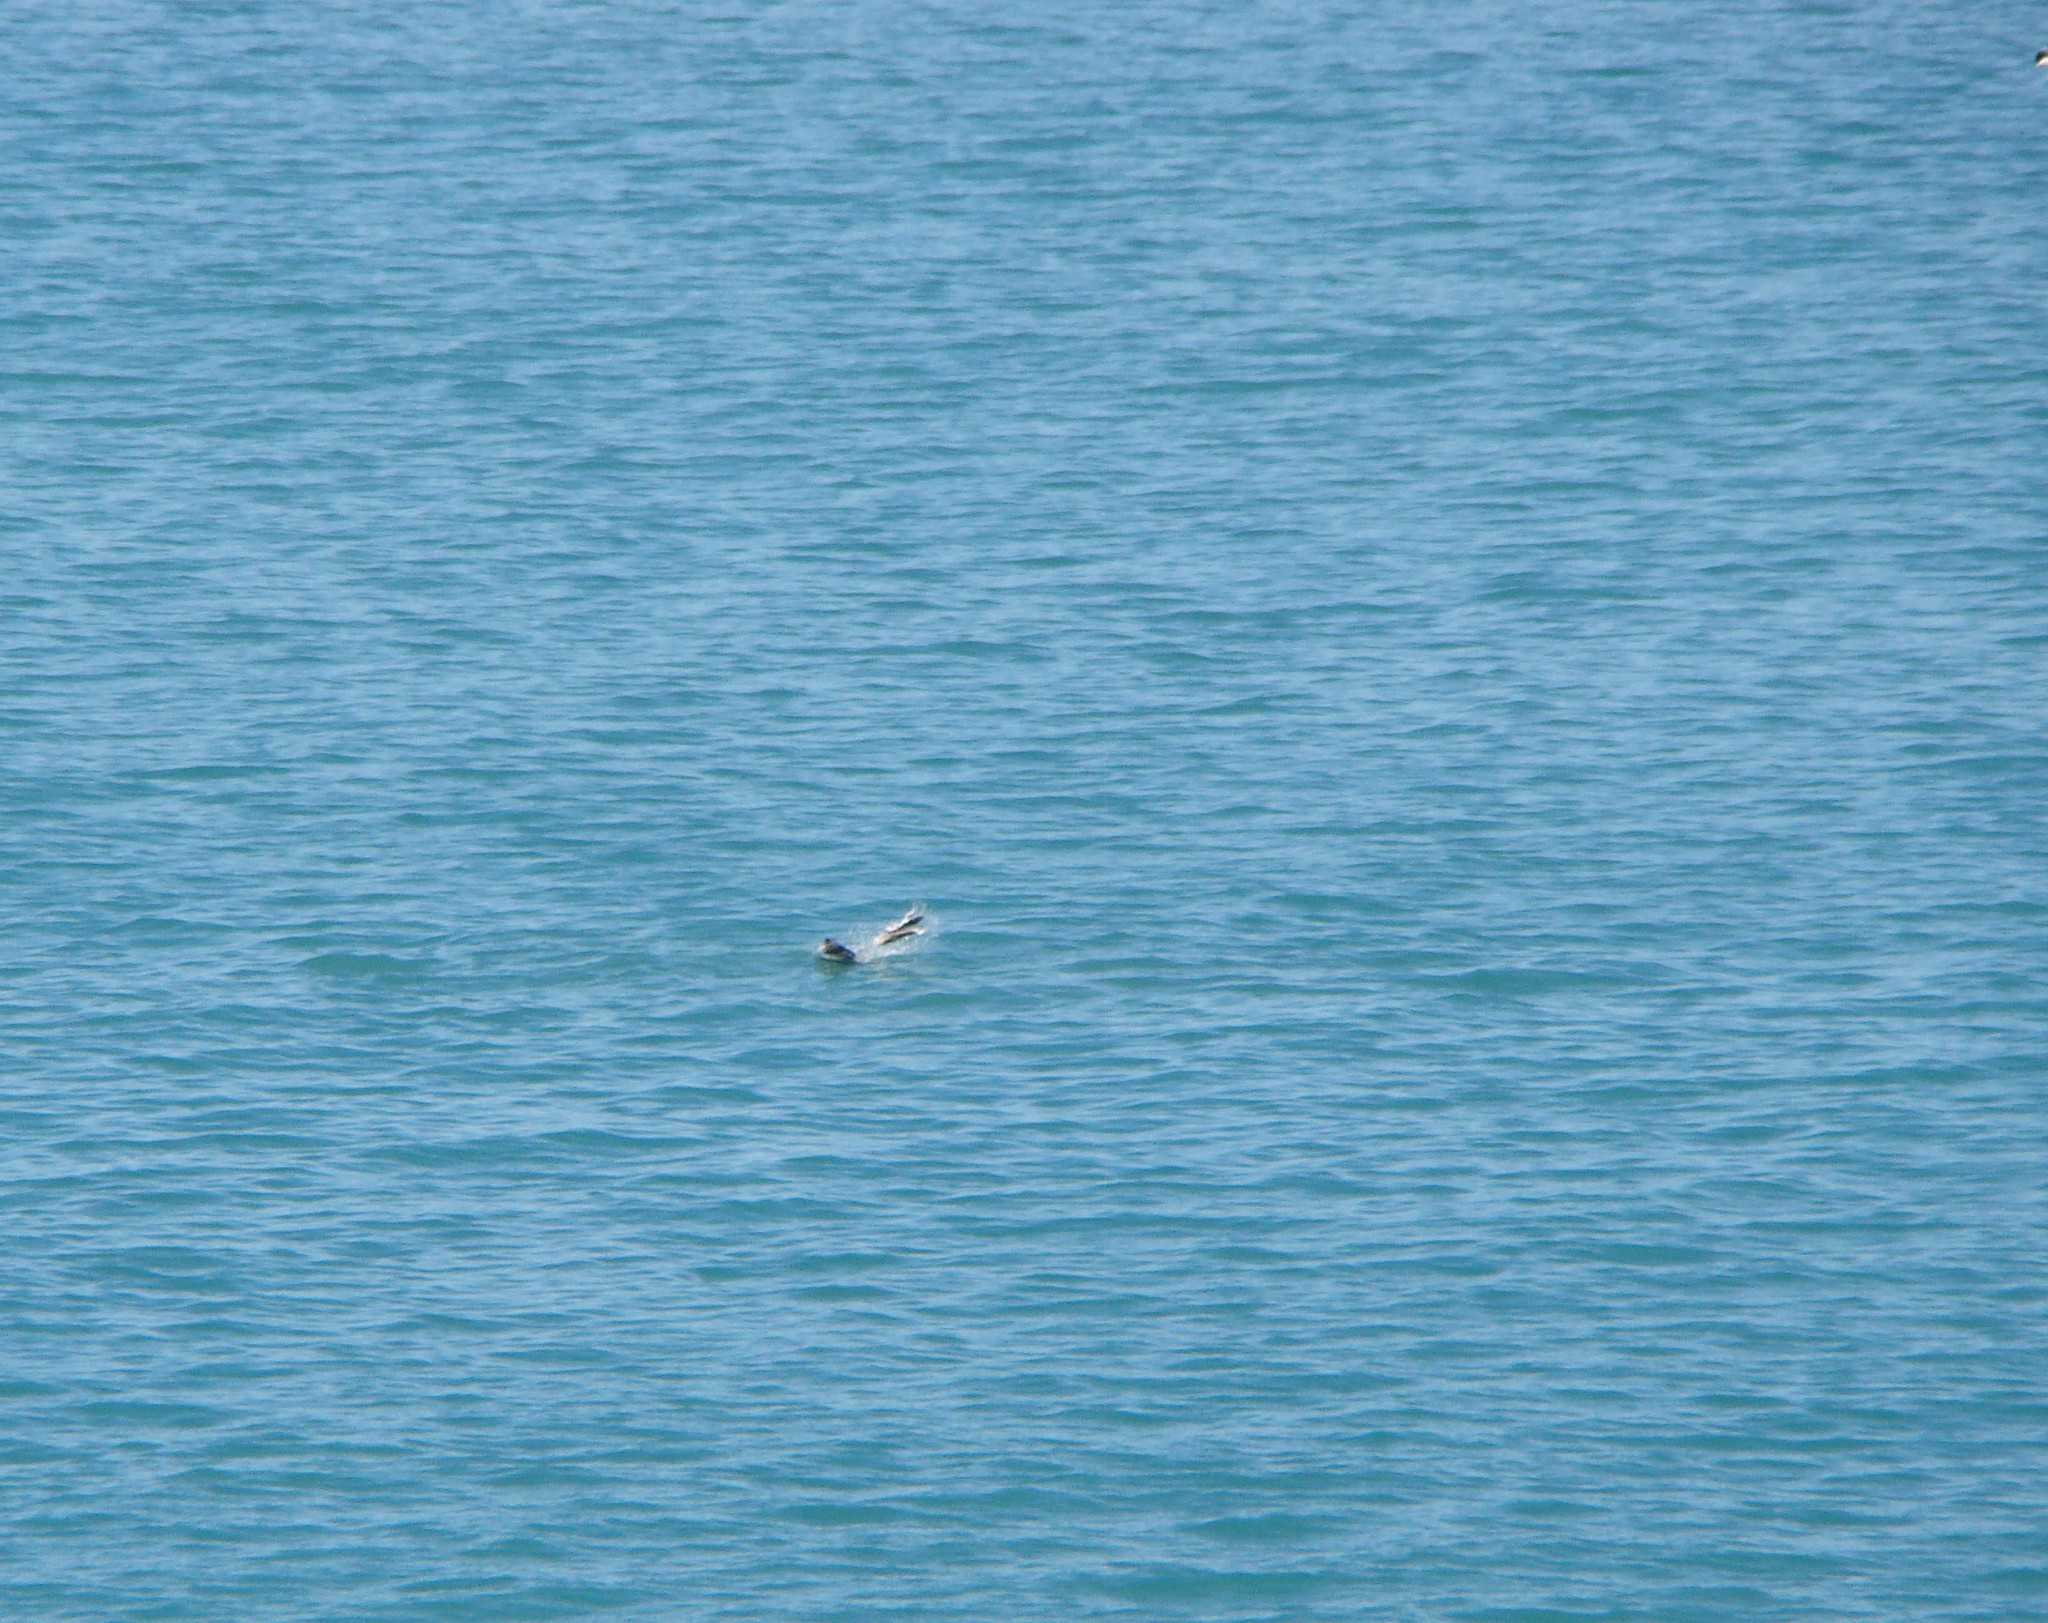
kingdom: Animalia
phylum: Chordata
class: Mammalia
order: Carnivora
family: Otariidae
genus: Arctocephalus
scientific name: Arctocephalus forsteri
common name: New zealand fur seal
